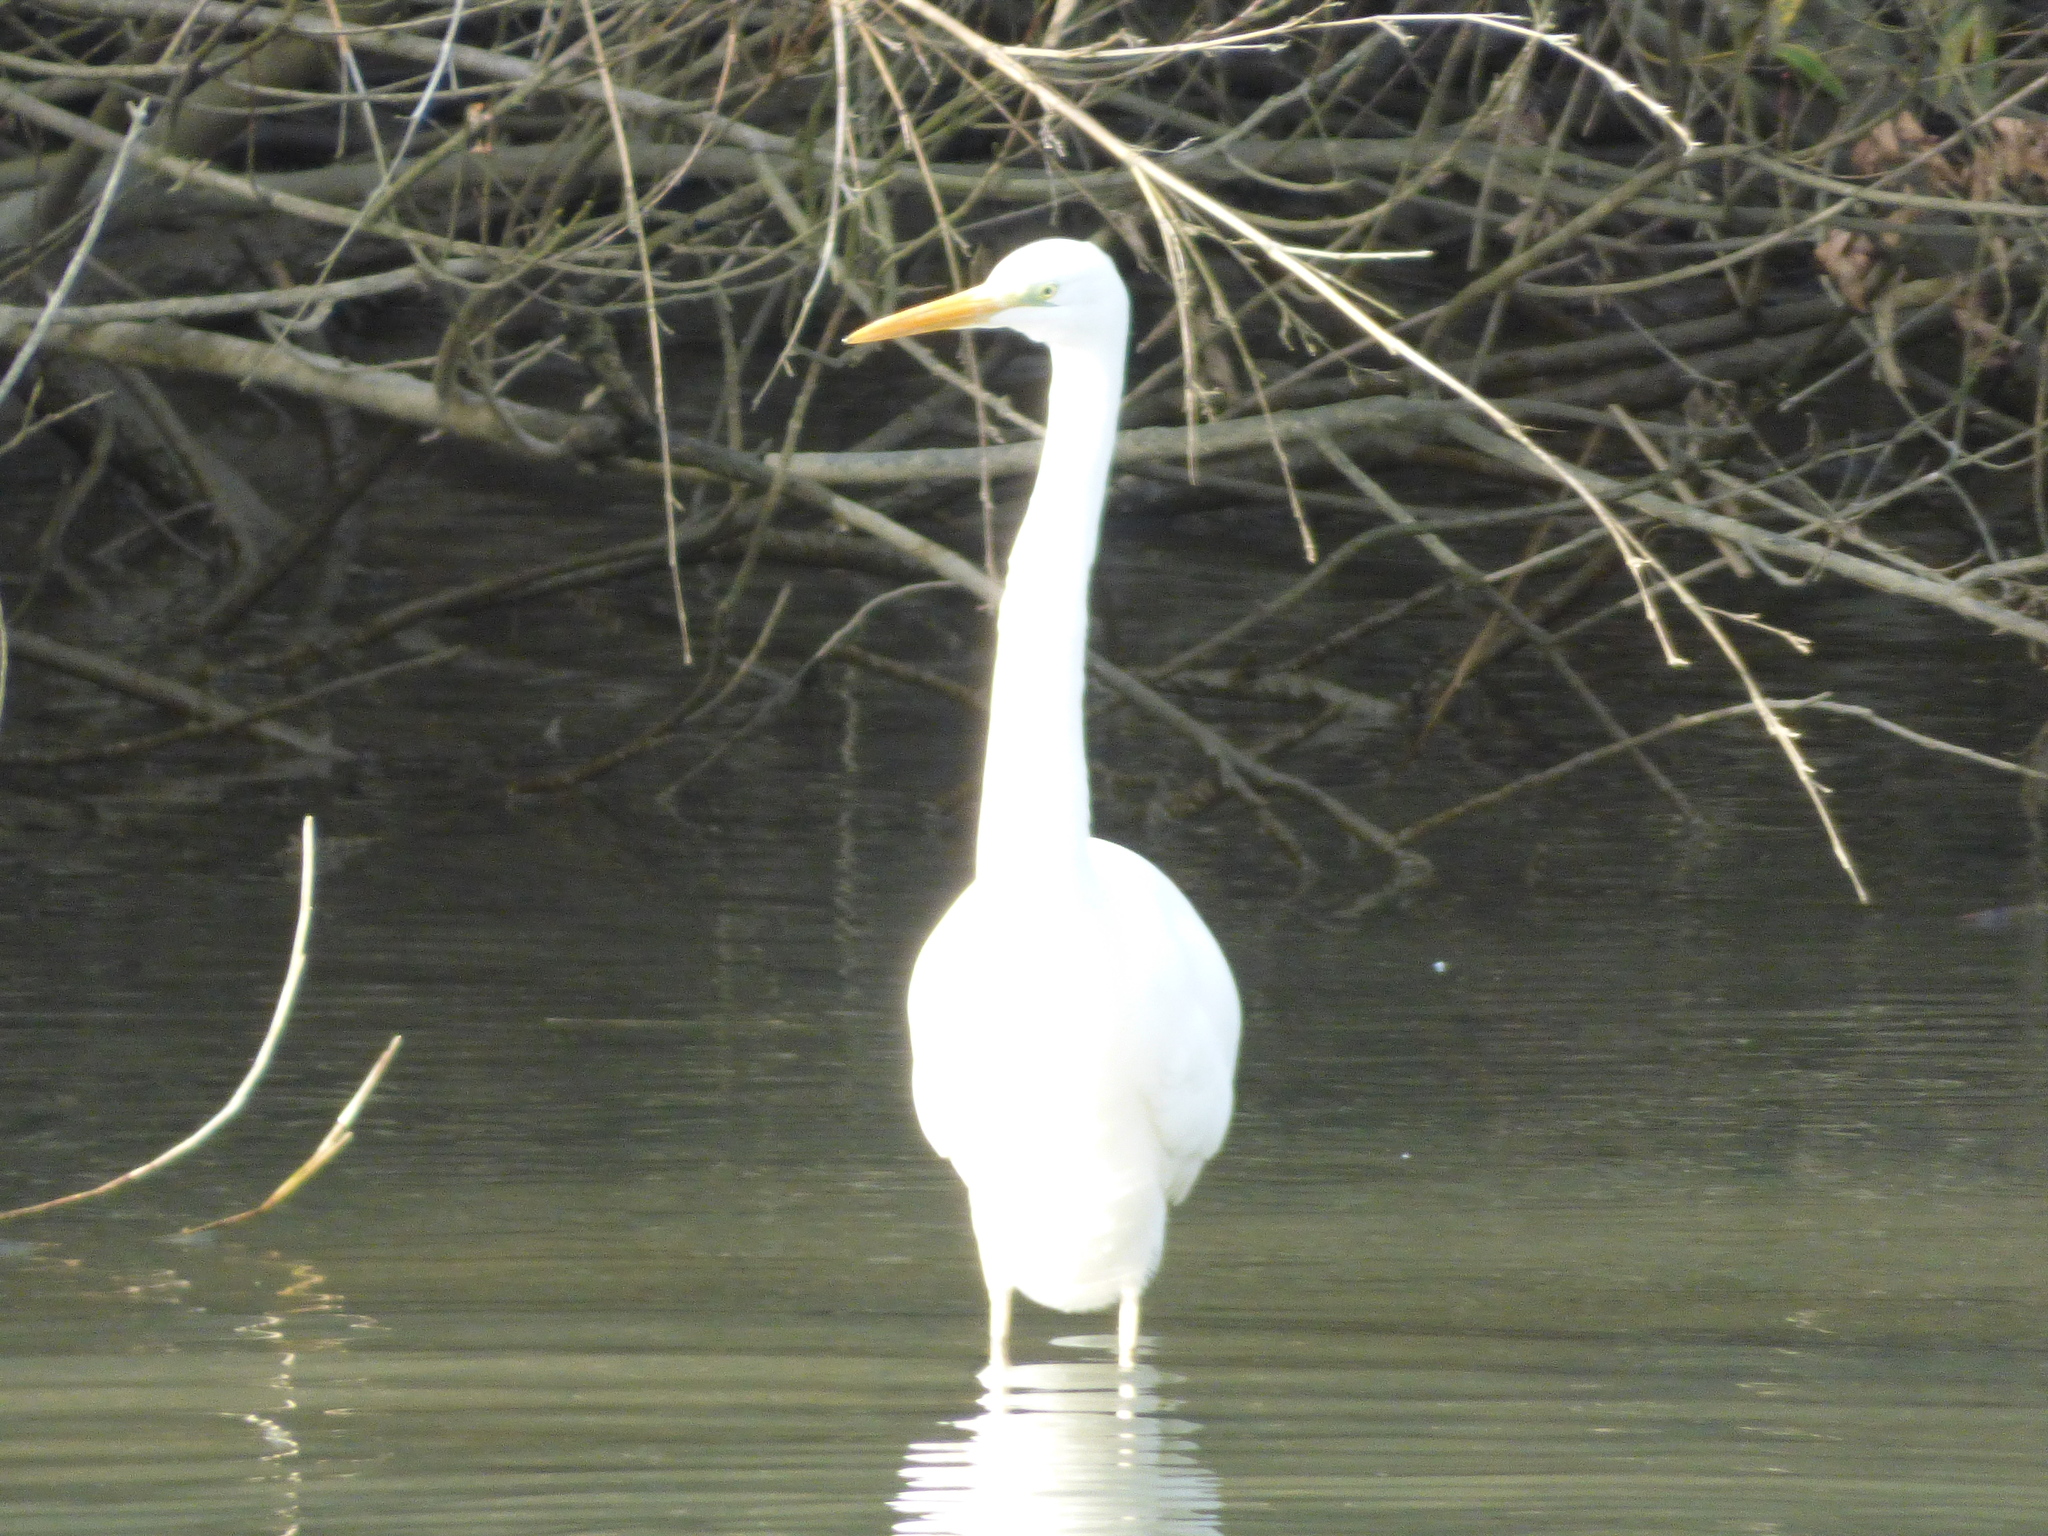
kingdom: Animalia
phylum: Chordata
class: Aves
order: Pelecaniformes
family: Ardeidae
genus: Ardea
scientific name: Ardea alba
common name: Great egret
